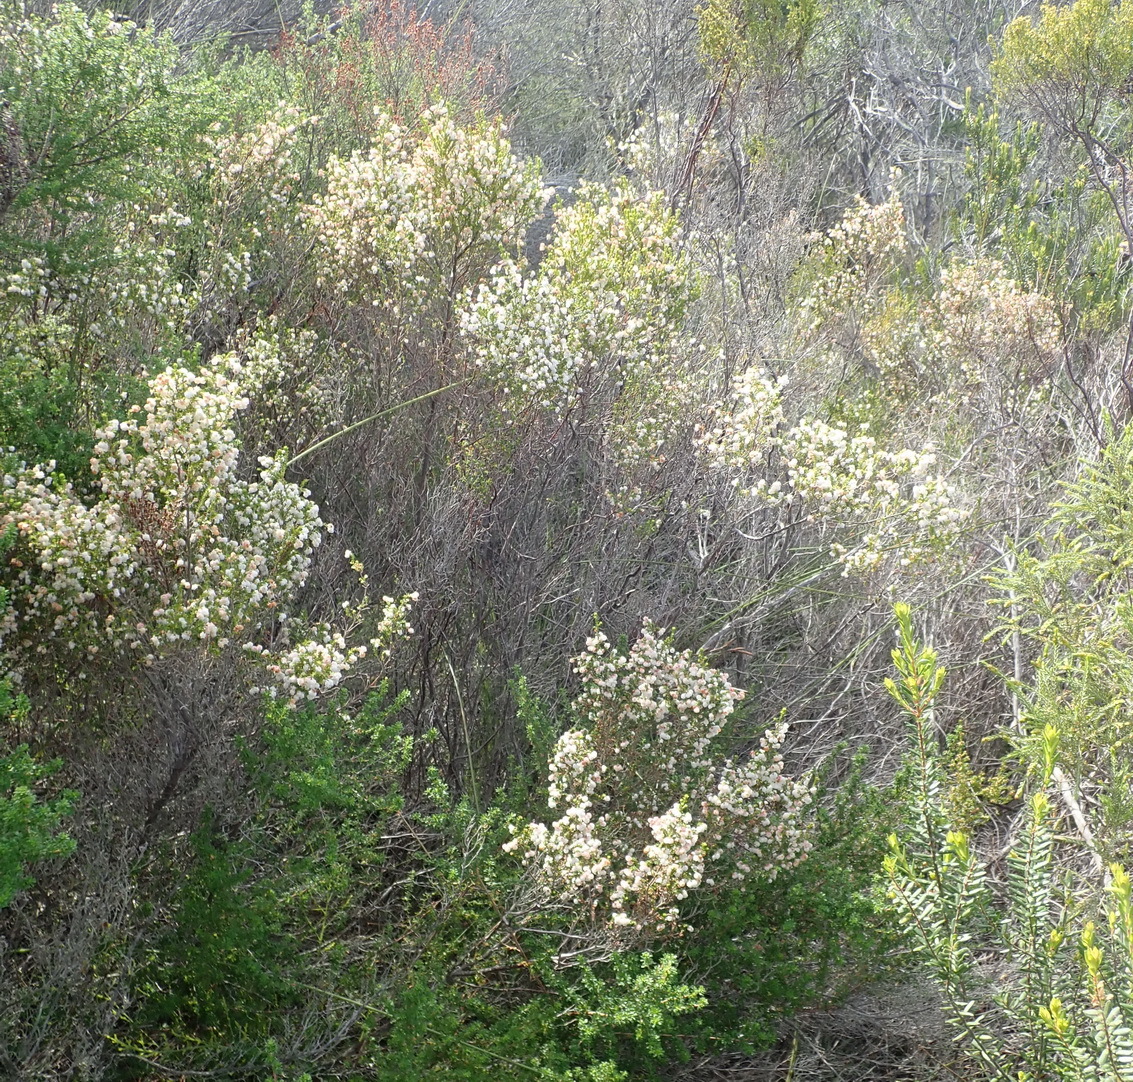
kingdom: Plantae
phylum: Tracheophyta
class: Magnoliopsida
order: Ericales
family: Ericaceae
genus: Erica
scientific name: Erica formosa
